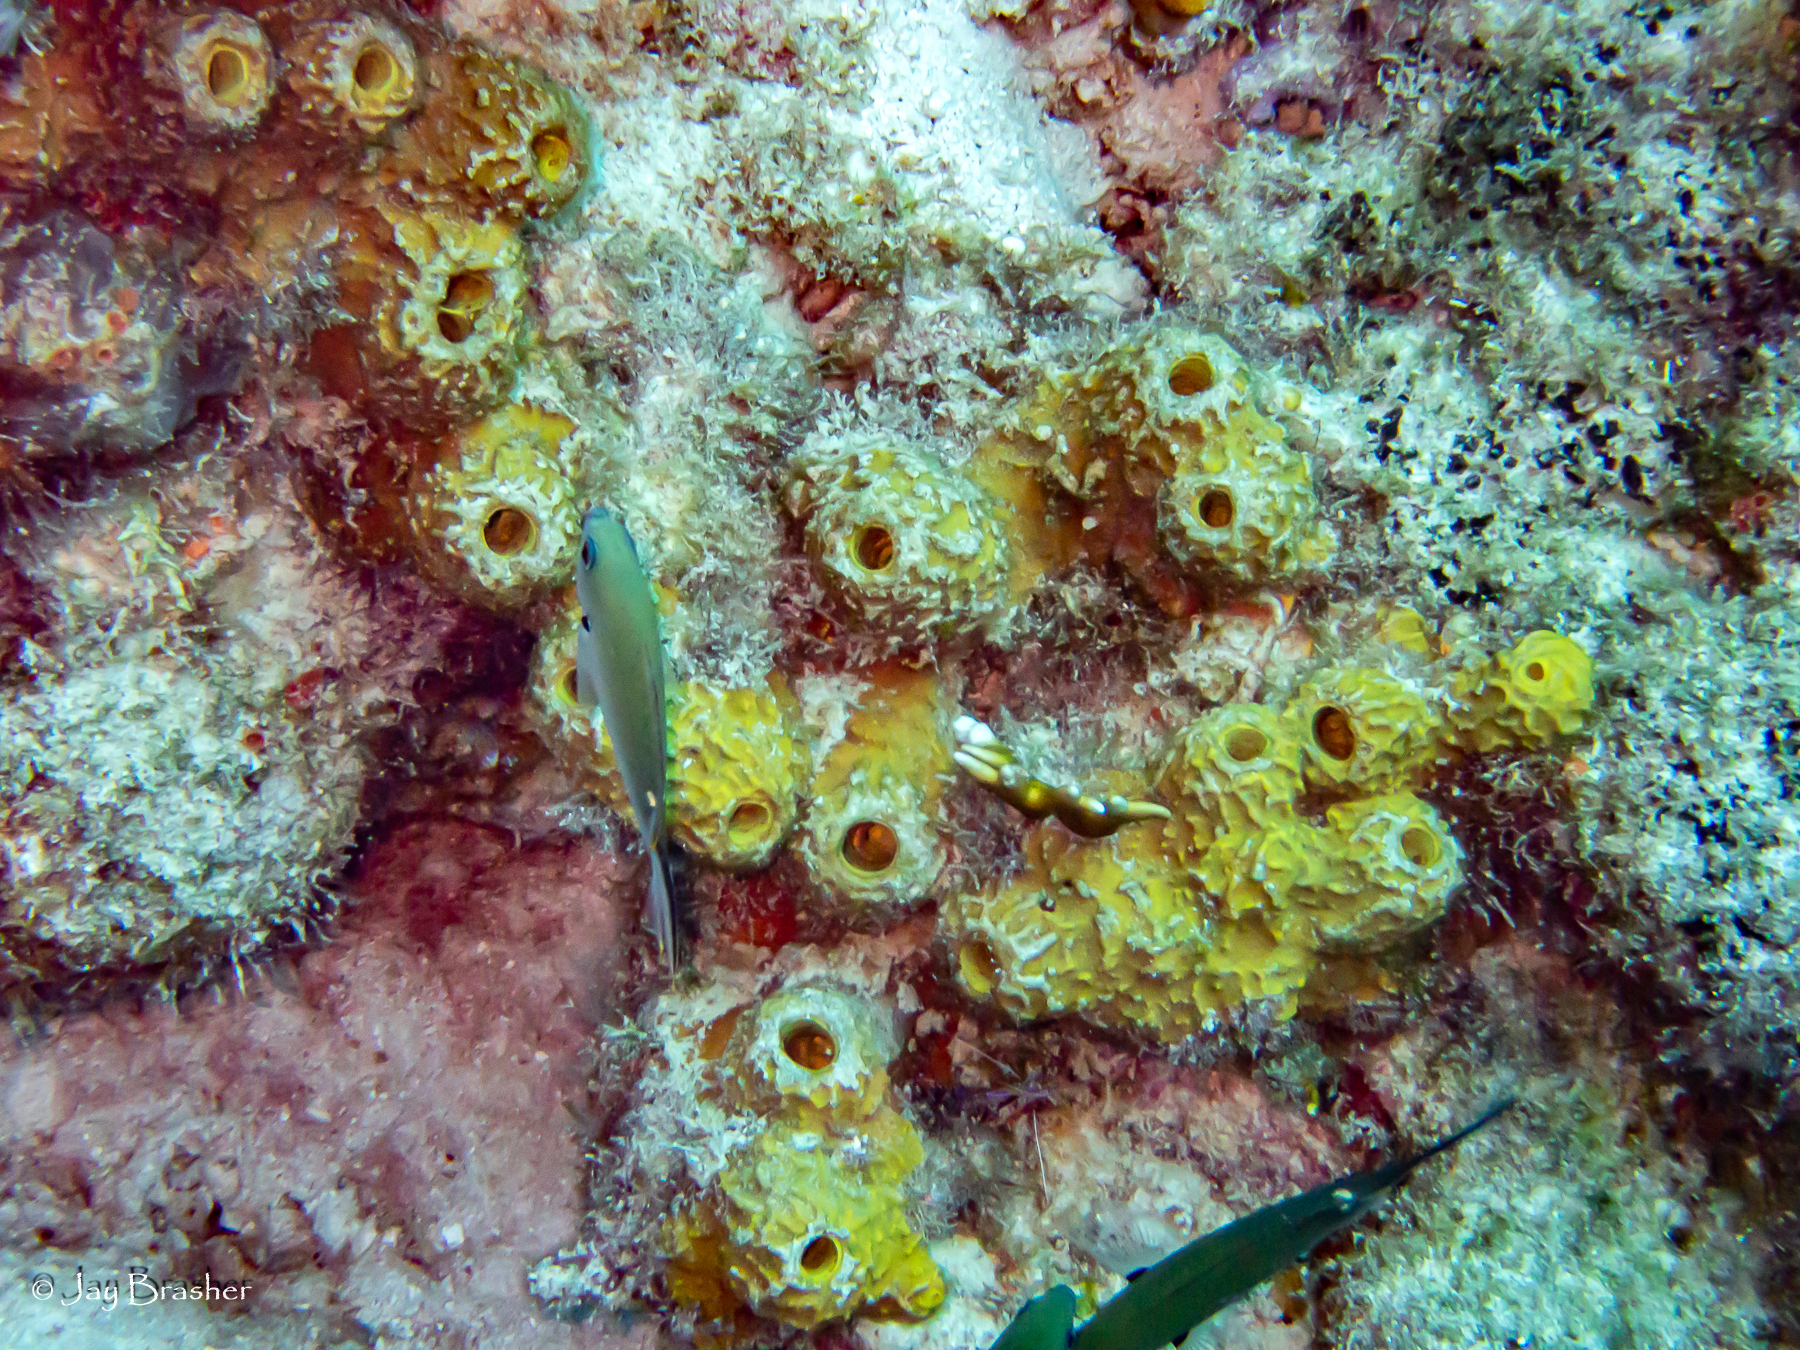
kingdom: Animalia
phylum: Porifera
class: Demospongiae
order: Verongiida
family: Aplysinidae
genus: Verongula
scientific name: Verongula rigida
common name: Pitted sponge
